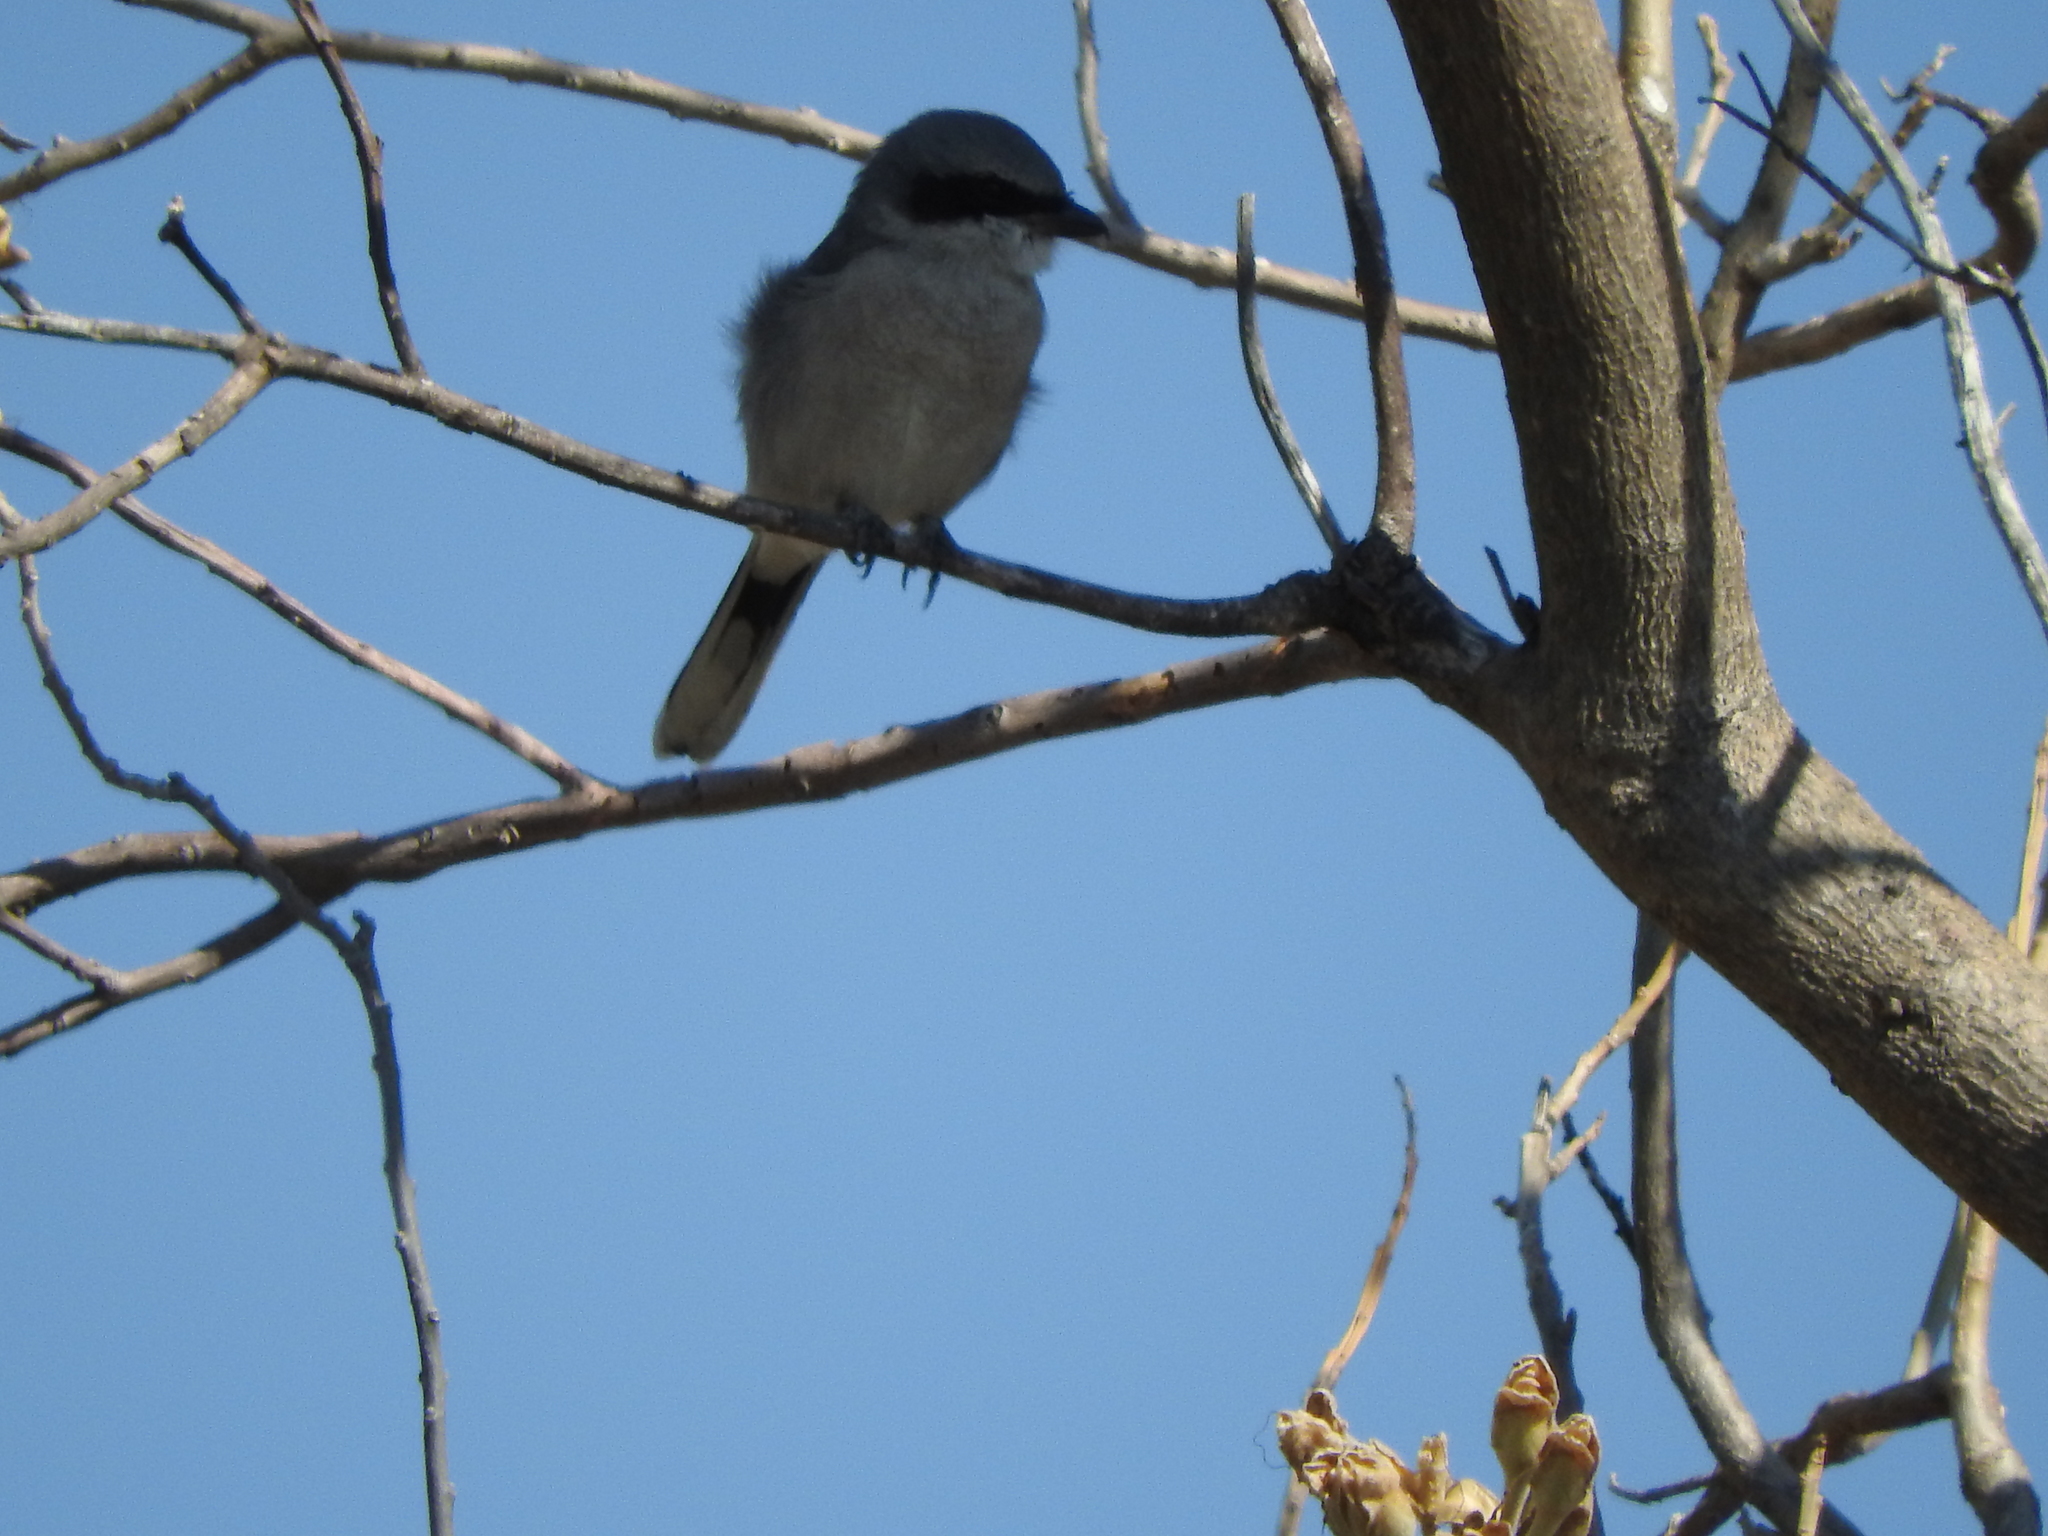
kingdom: Animalia
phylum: Chordata
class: Aves
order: Passeriformes
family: Laniidae
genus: Lanius
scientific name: Lanius ludovicianus
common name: Loggerhead shrike
